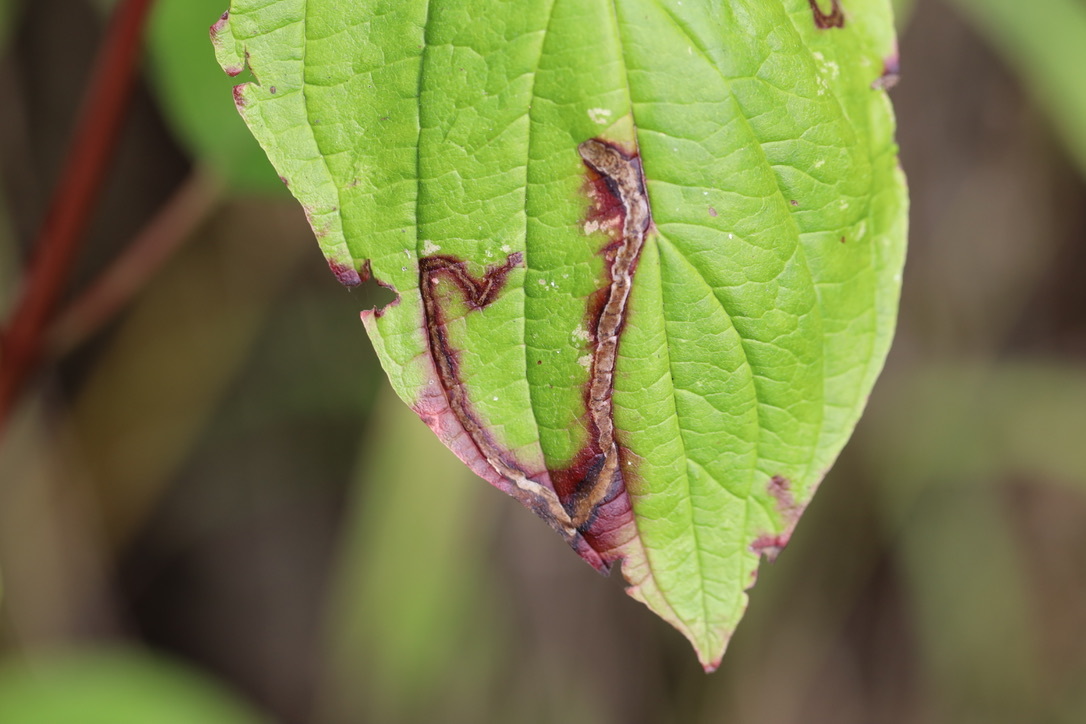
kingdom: Animalia
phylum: Arthropoda
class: Insecta
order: Diptera
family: Agromyzidae
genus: Phytomyza
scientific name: Phytomyza agromyzina
